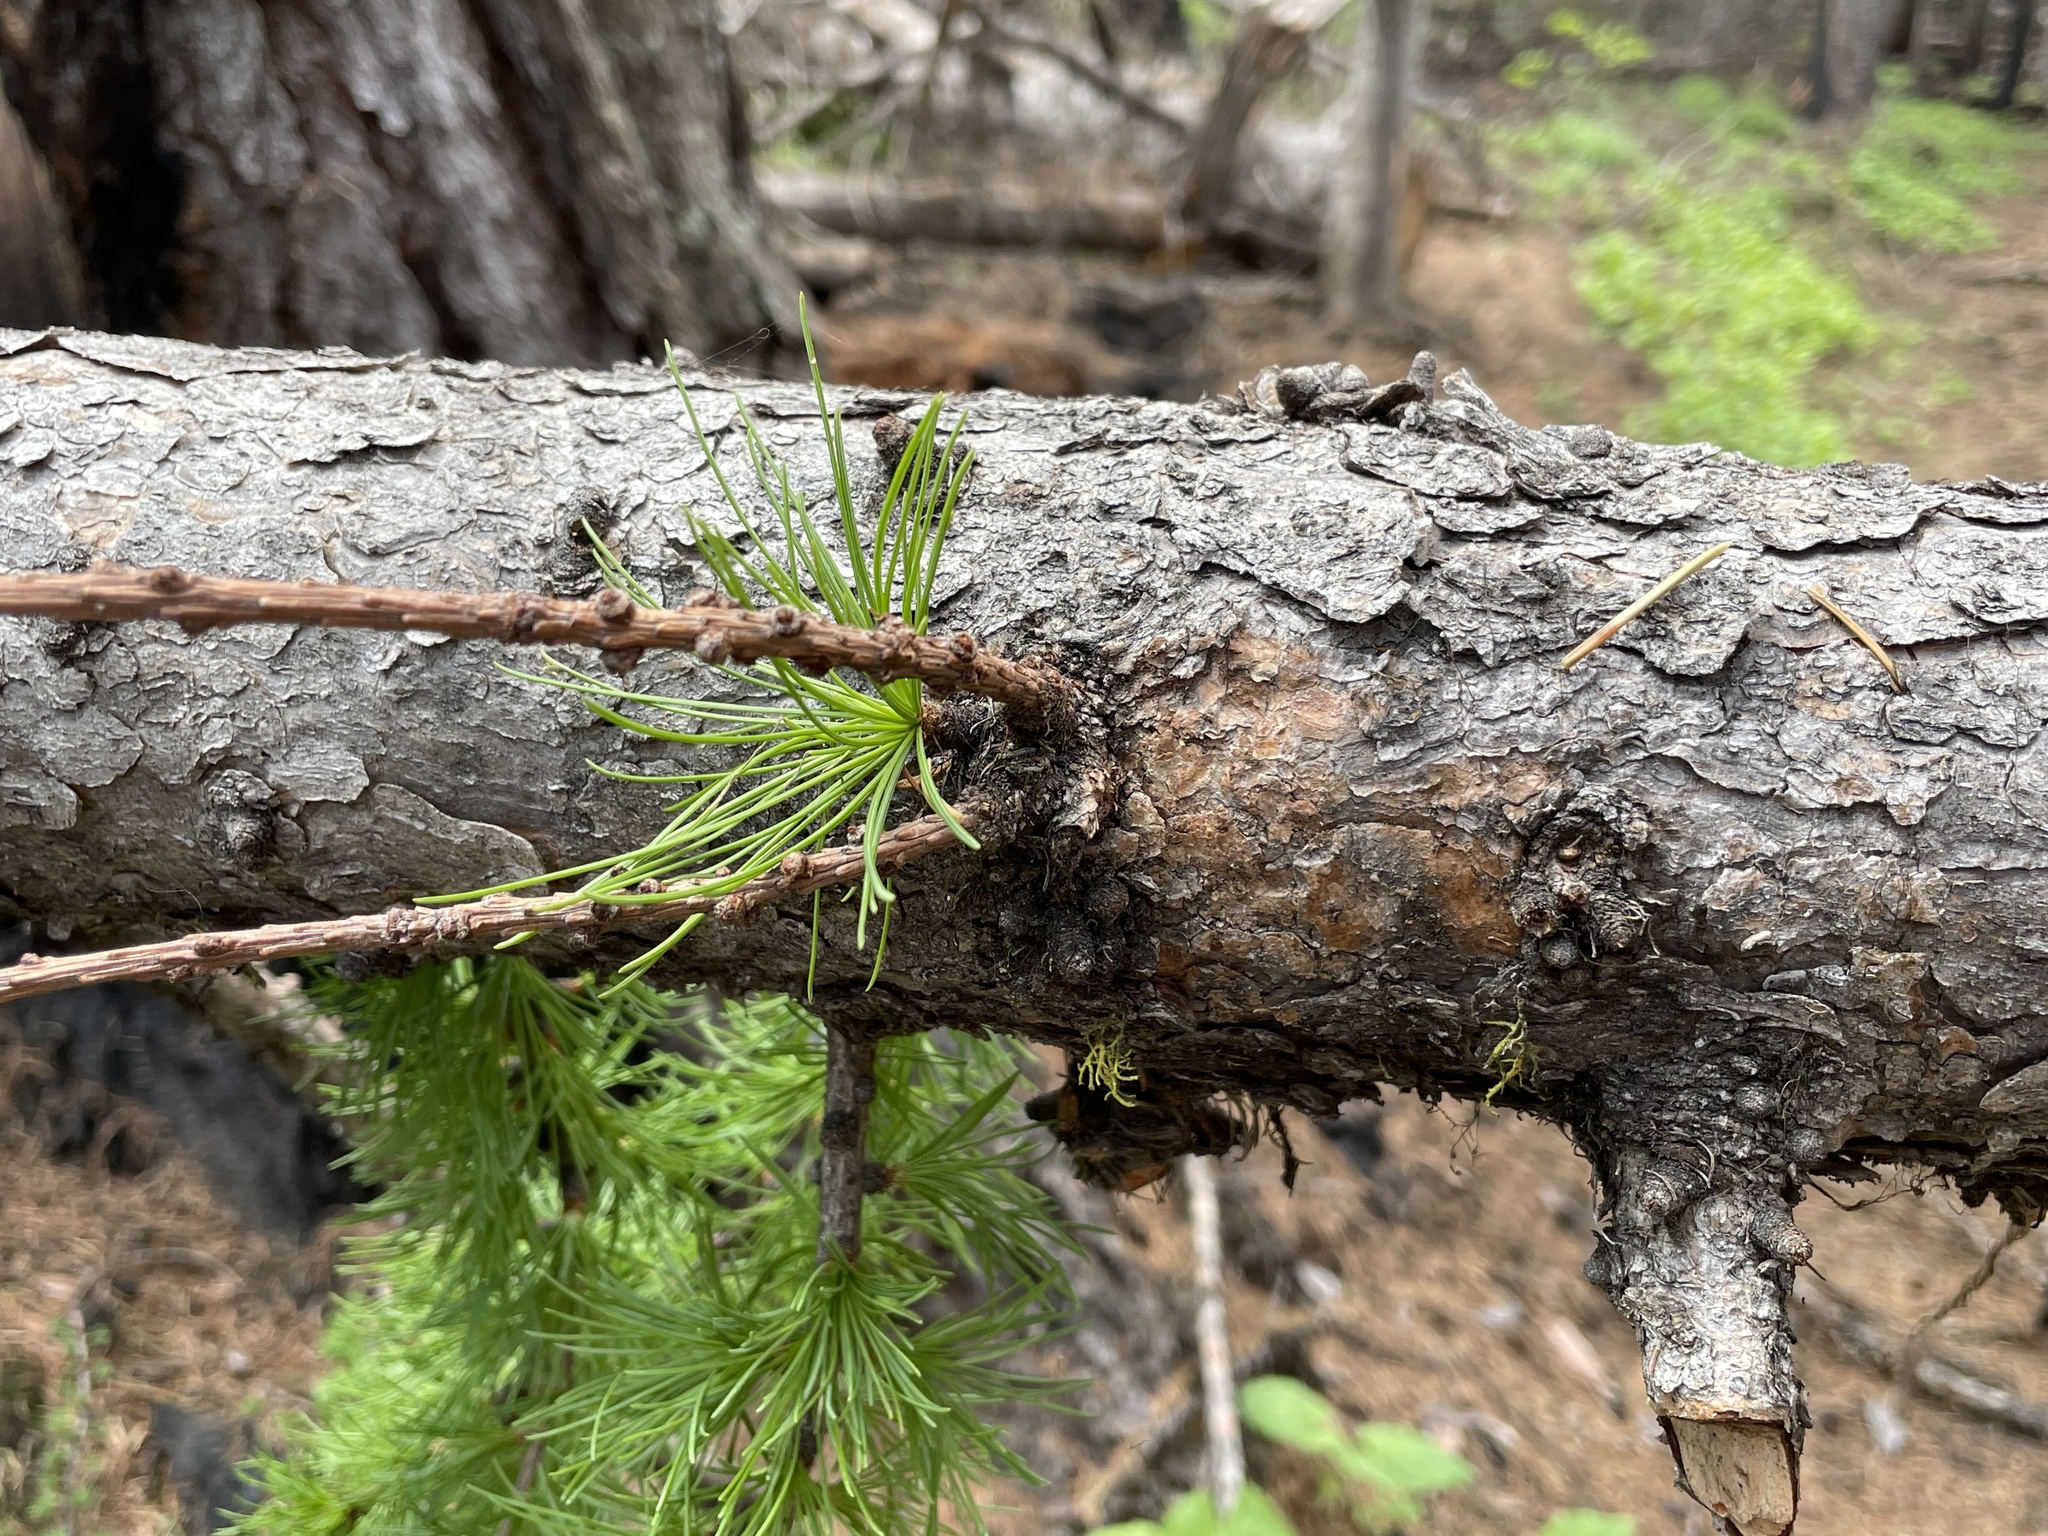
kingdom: Plantae
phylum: Tracheophyta
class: Pinopsida
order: Pinales
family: Pinaceae
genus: Larix
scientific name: Larix occidentalis
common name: Western larch
